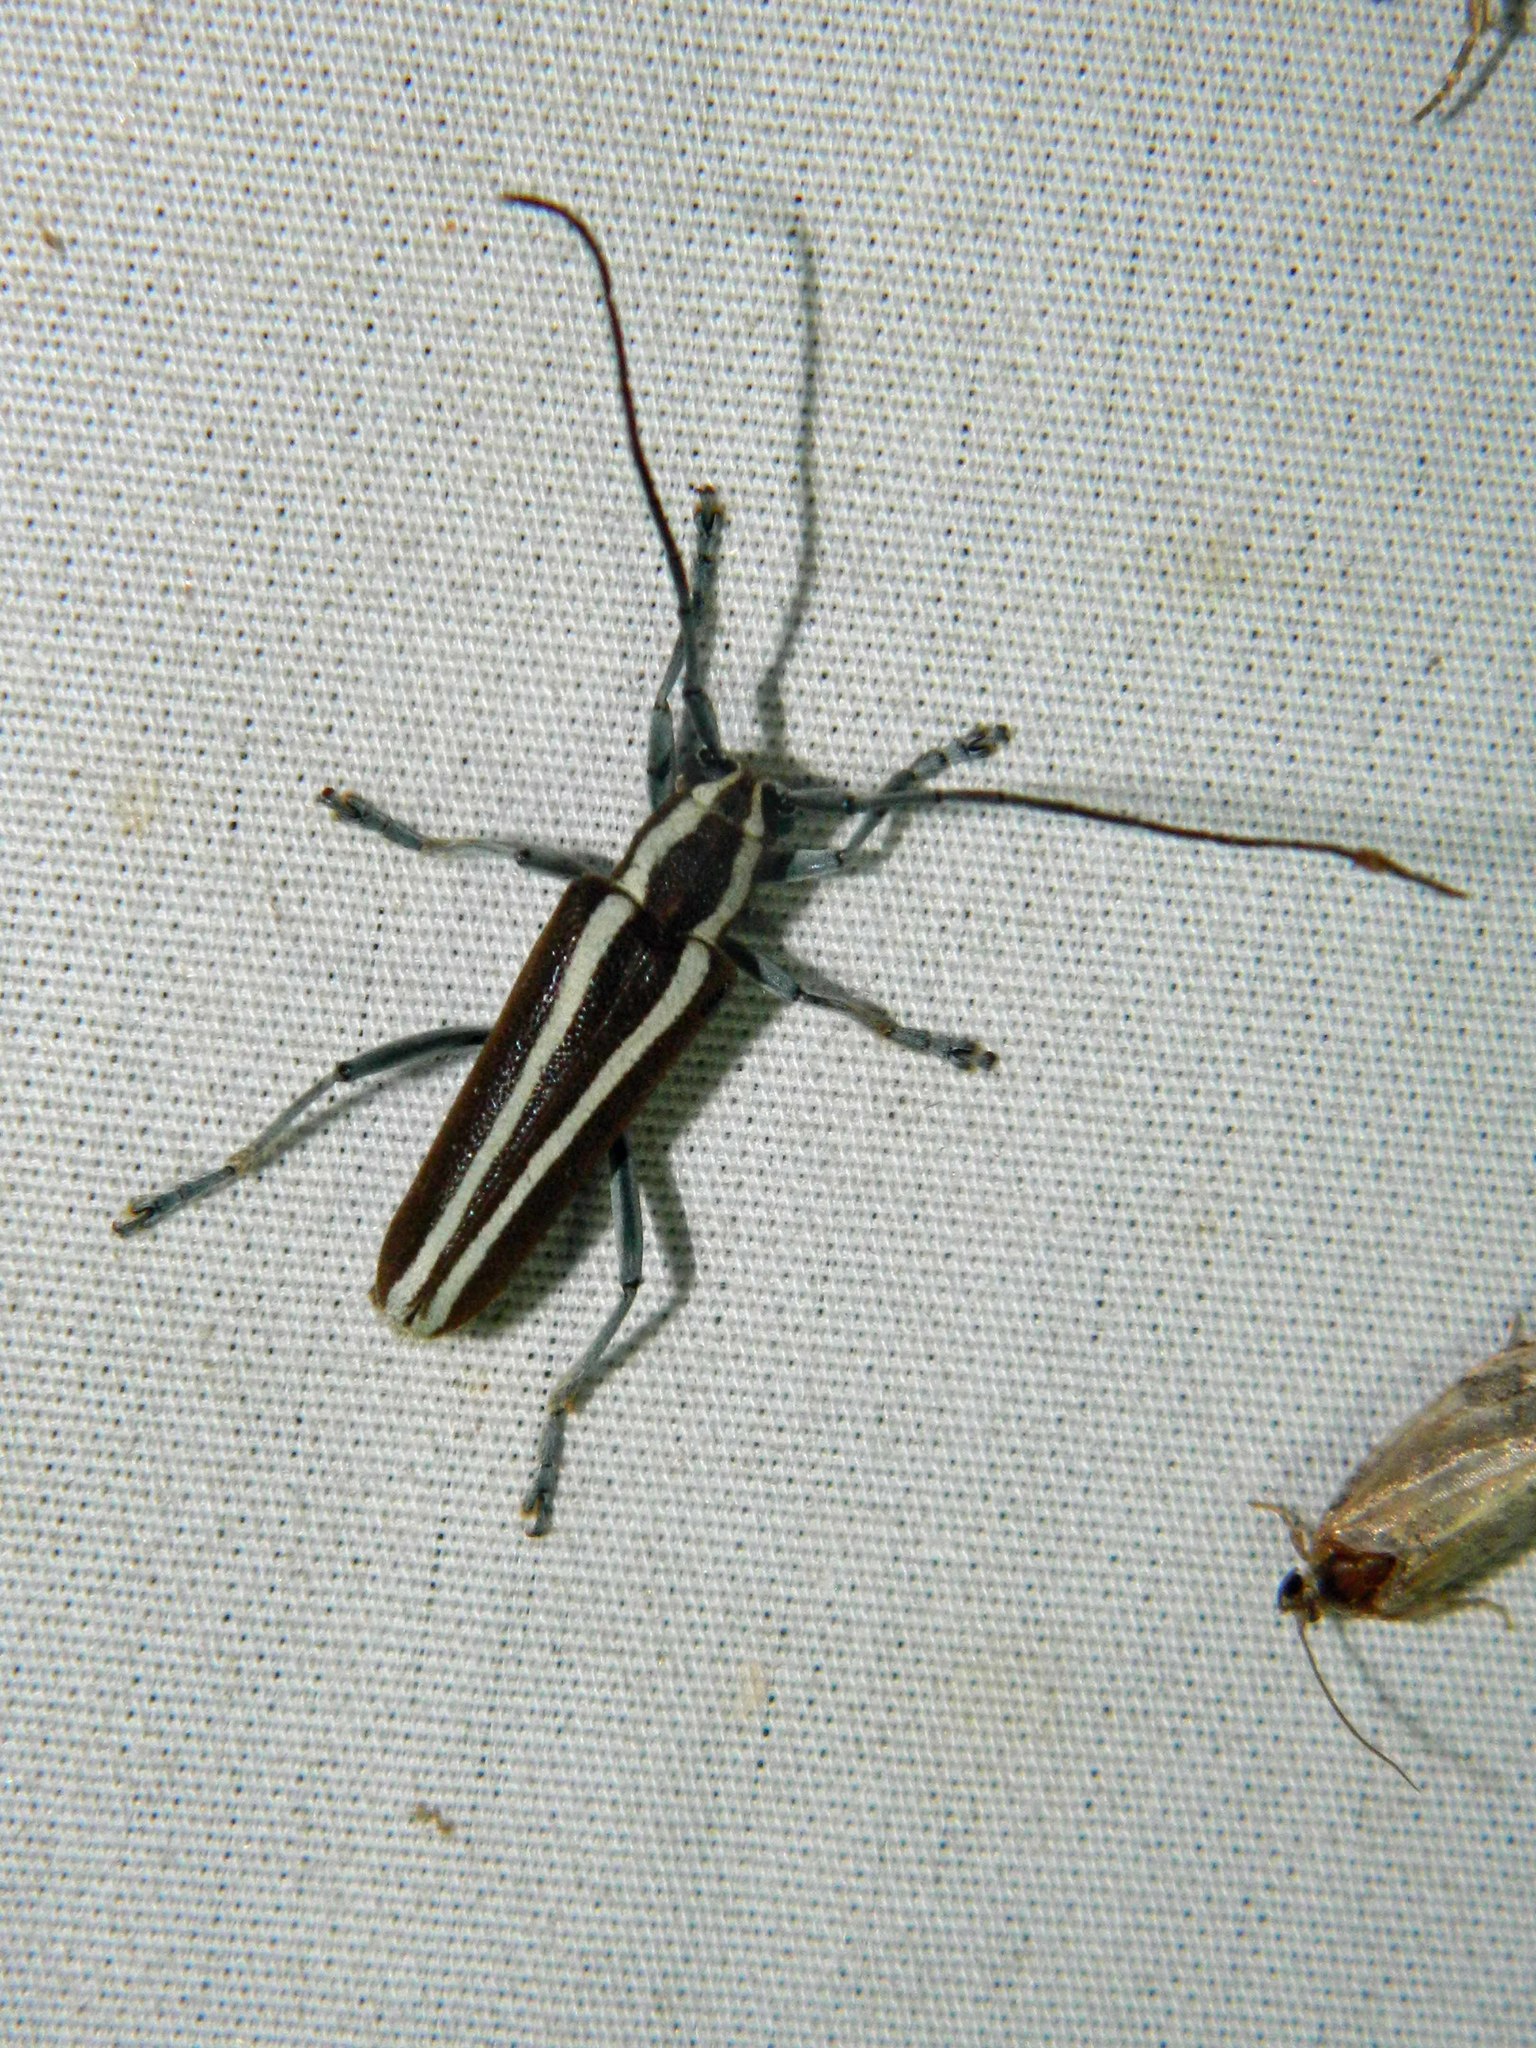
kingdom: Animalia
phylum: Arthropoda
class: Insecta
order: Coleoptera
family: Cerambycidae
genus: Saperda
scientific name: Saperda candida
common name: Round-headed borer
